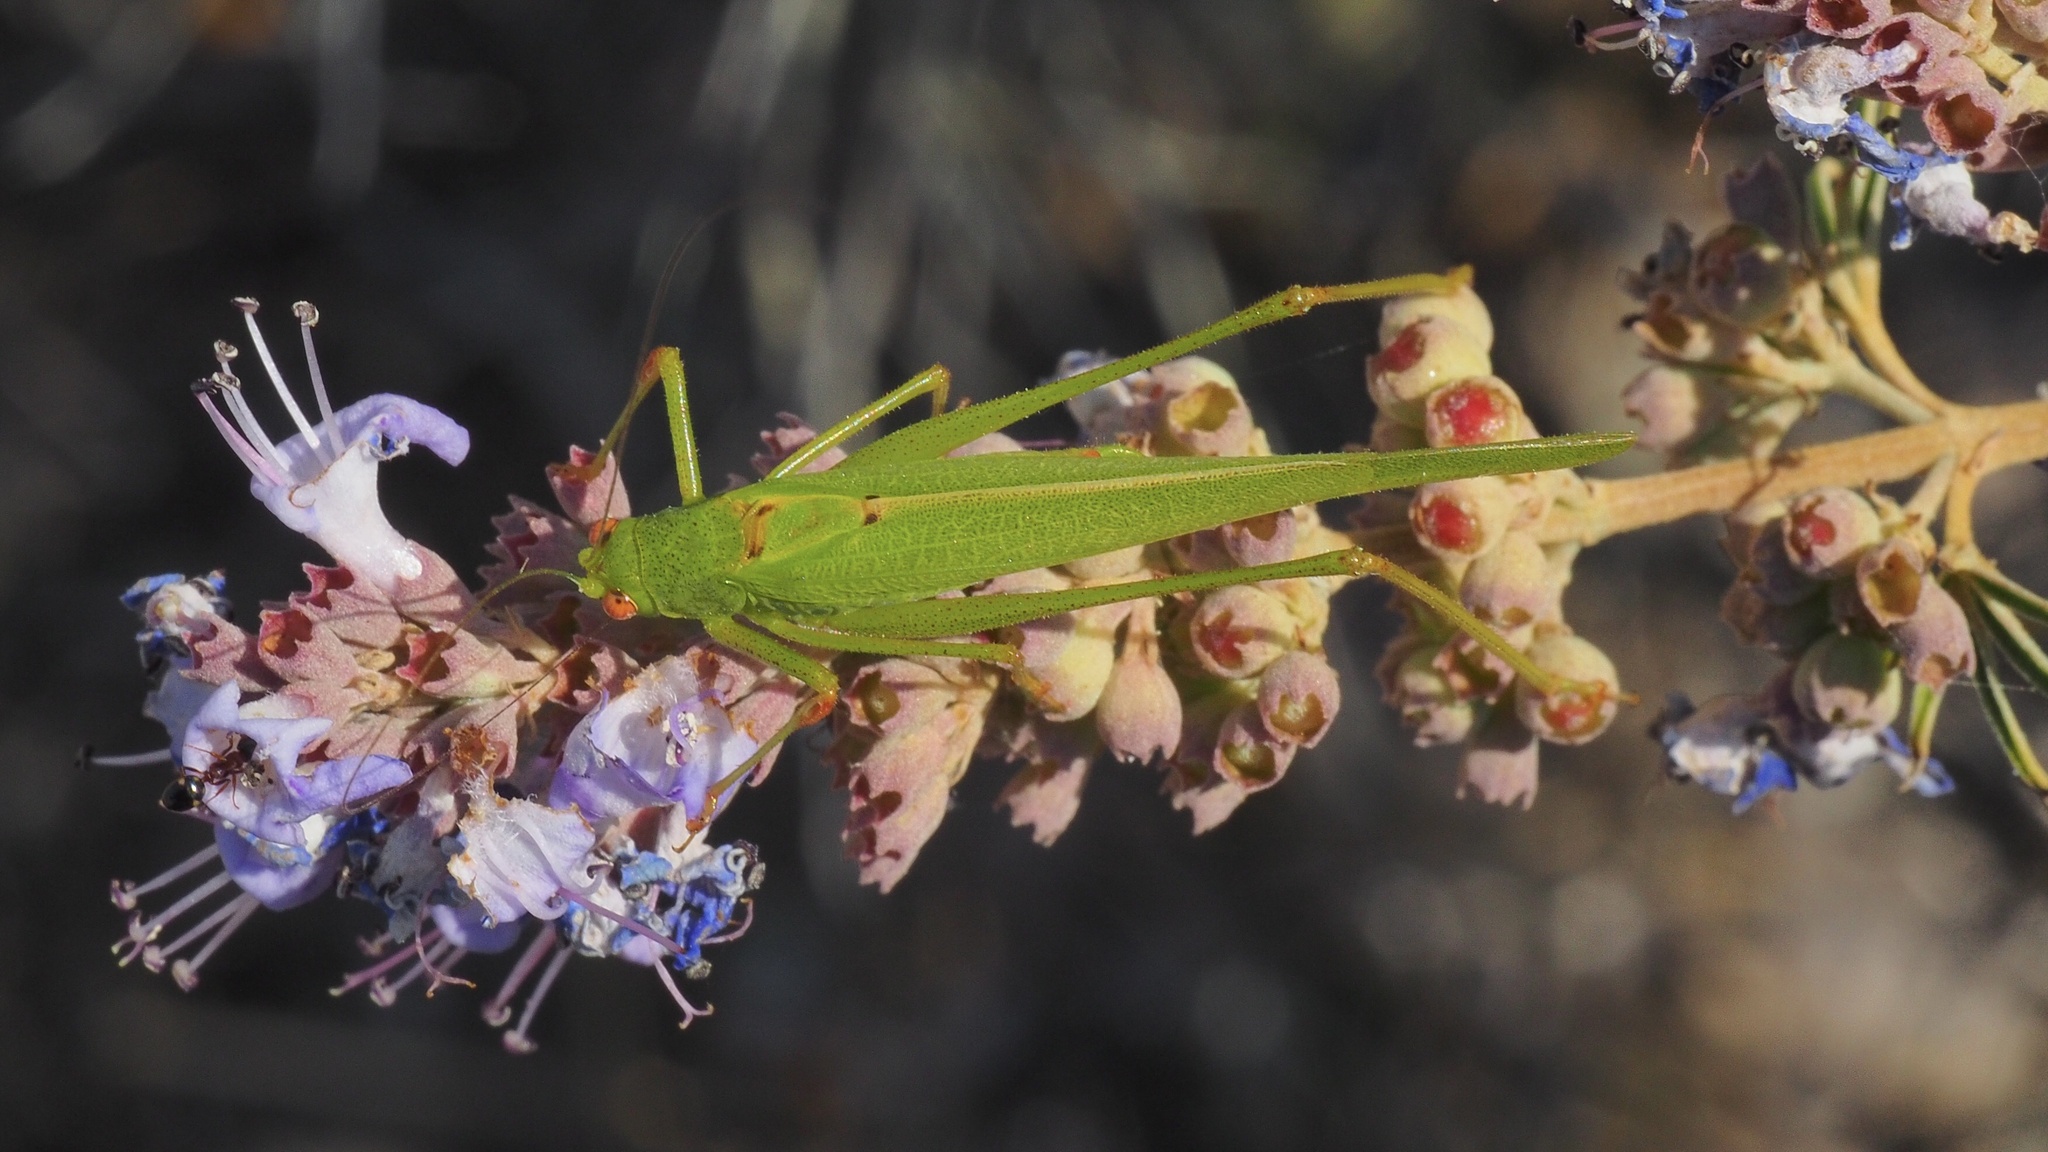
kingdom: Animalia
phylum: Arthropoda
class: Insecta
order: Orthoptera
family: Tettigoniidae
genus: Phaneroptera
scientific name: Phaneroptera nana
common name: Southern sickle bush-cricket
